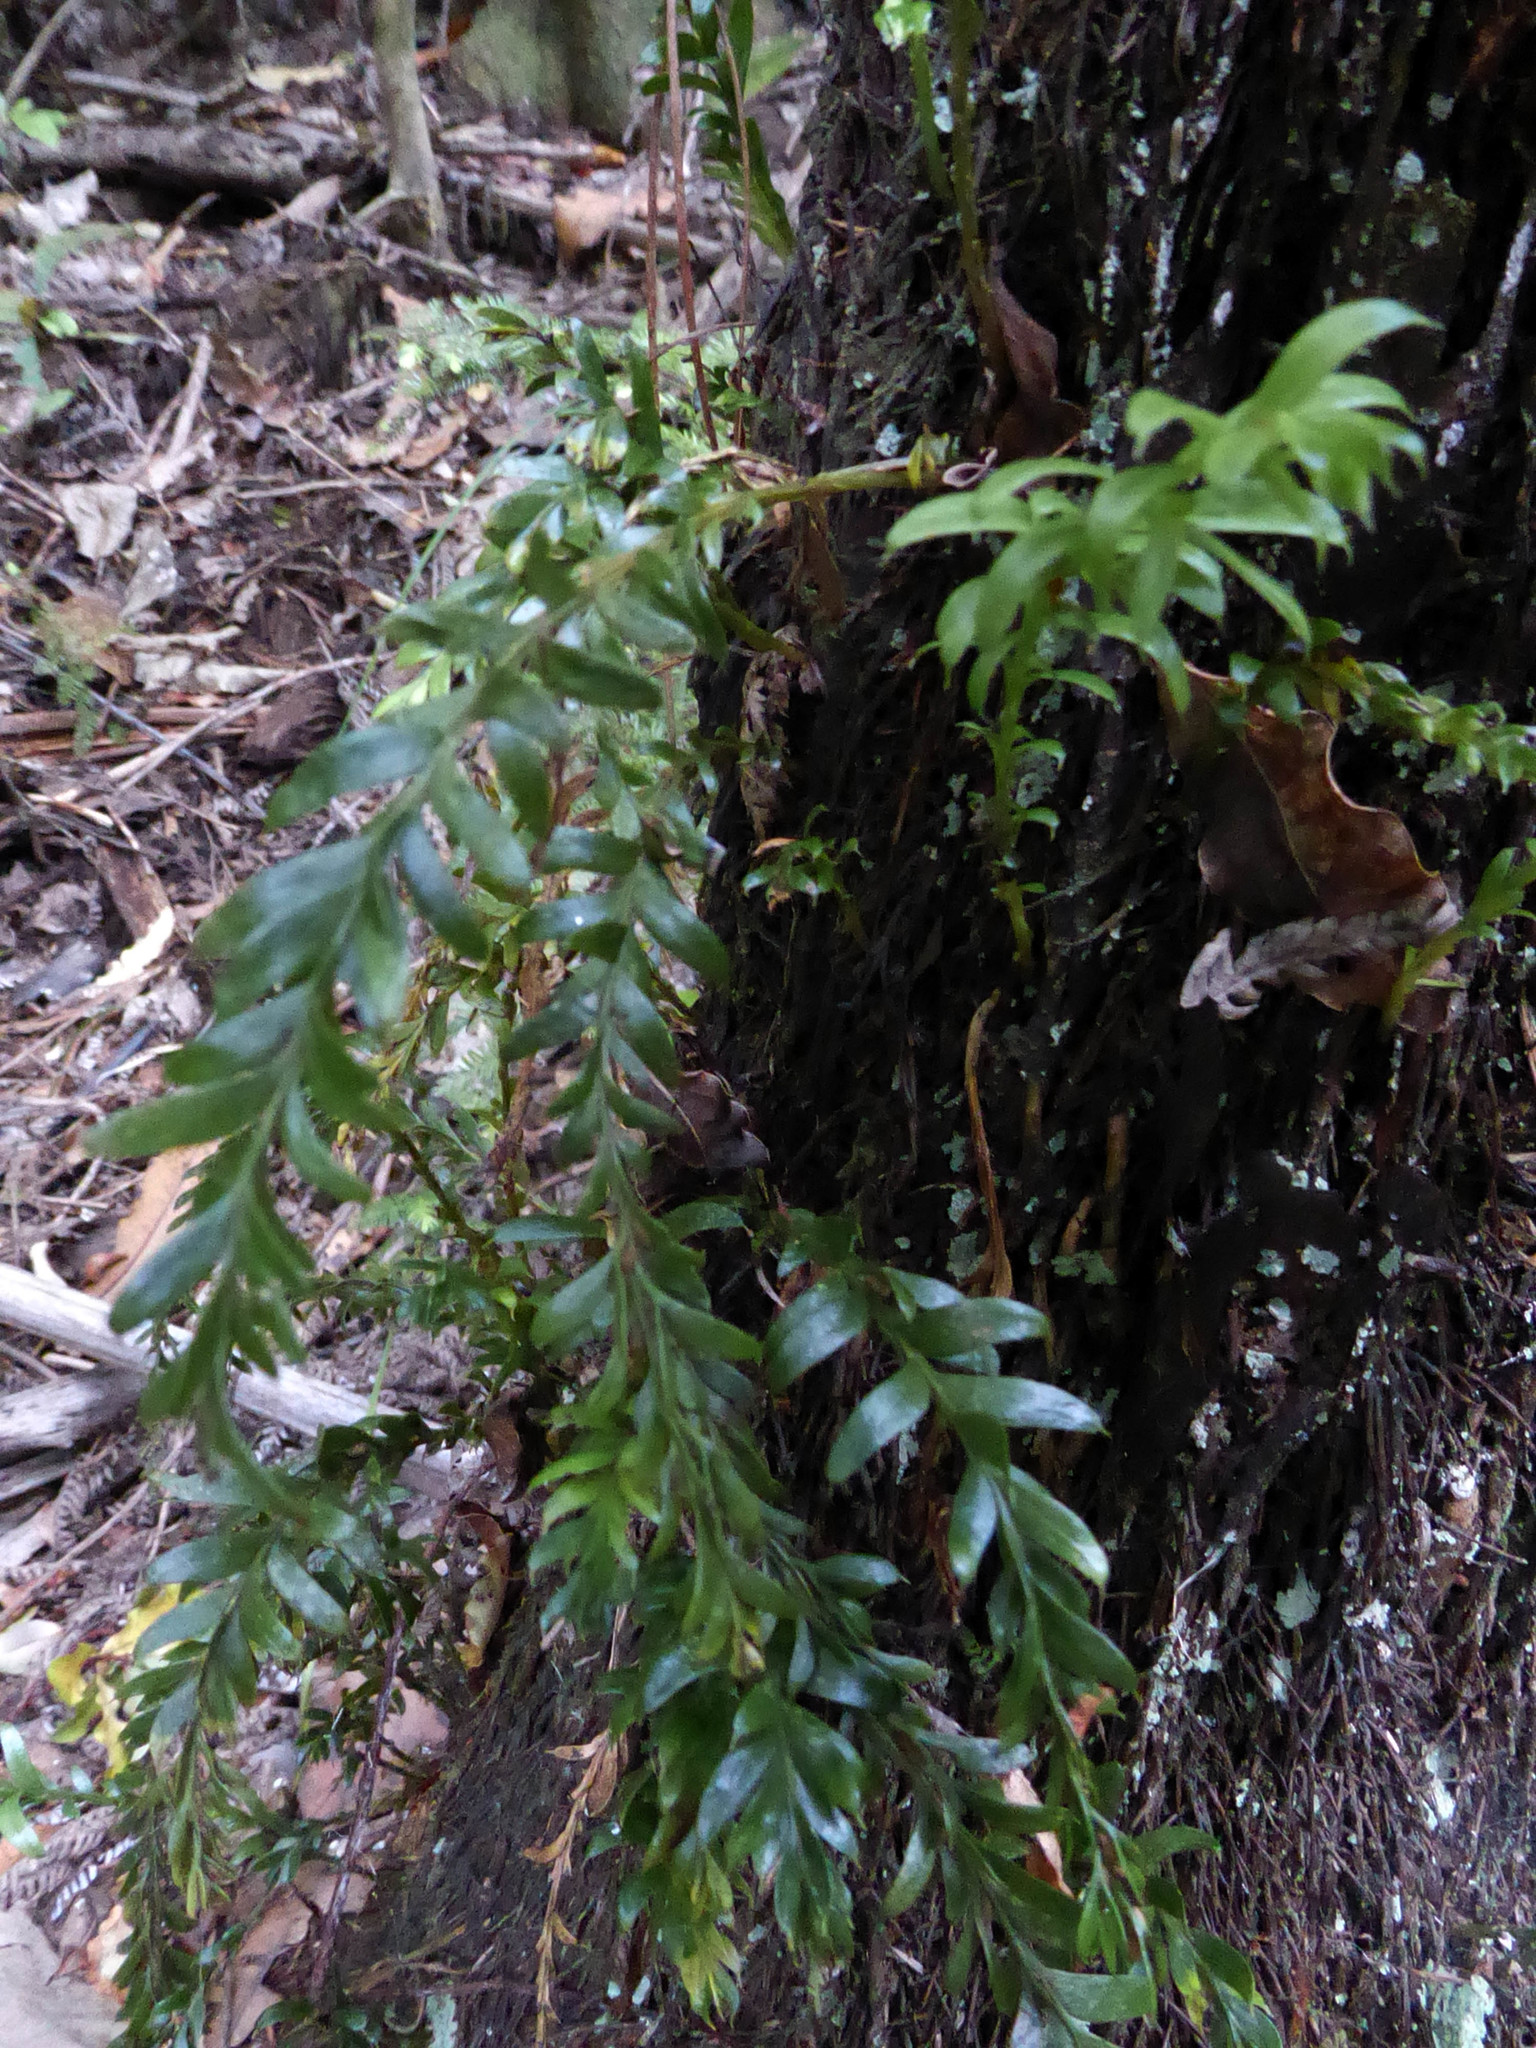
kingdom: Plantae
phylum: Tracheophyta
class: Polypodiopsida
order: Psilotales
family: Psilotaceae
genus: Tmesipteris
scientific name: Tmesipteris tannensis
